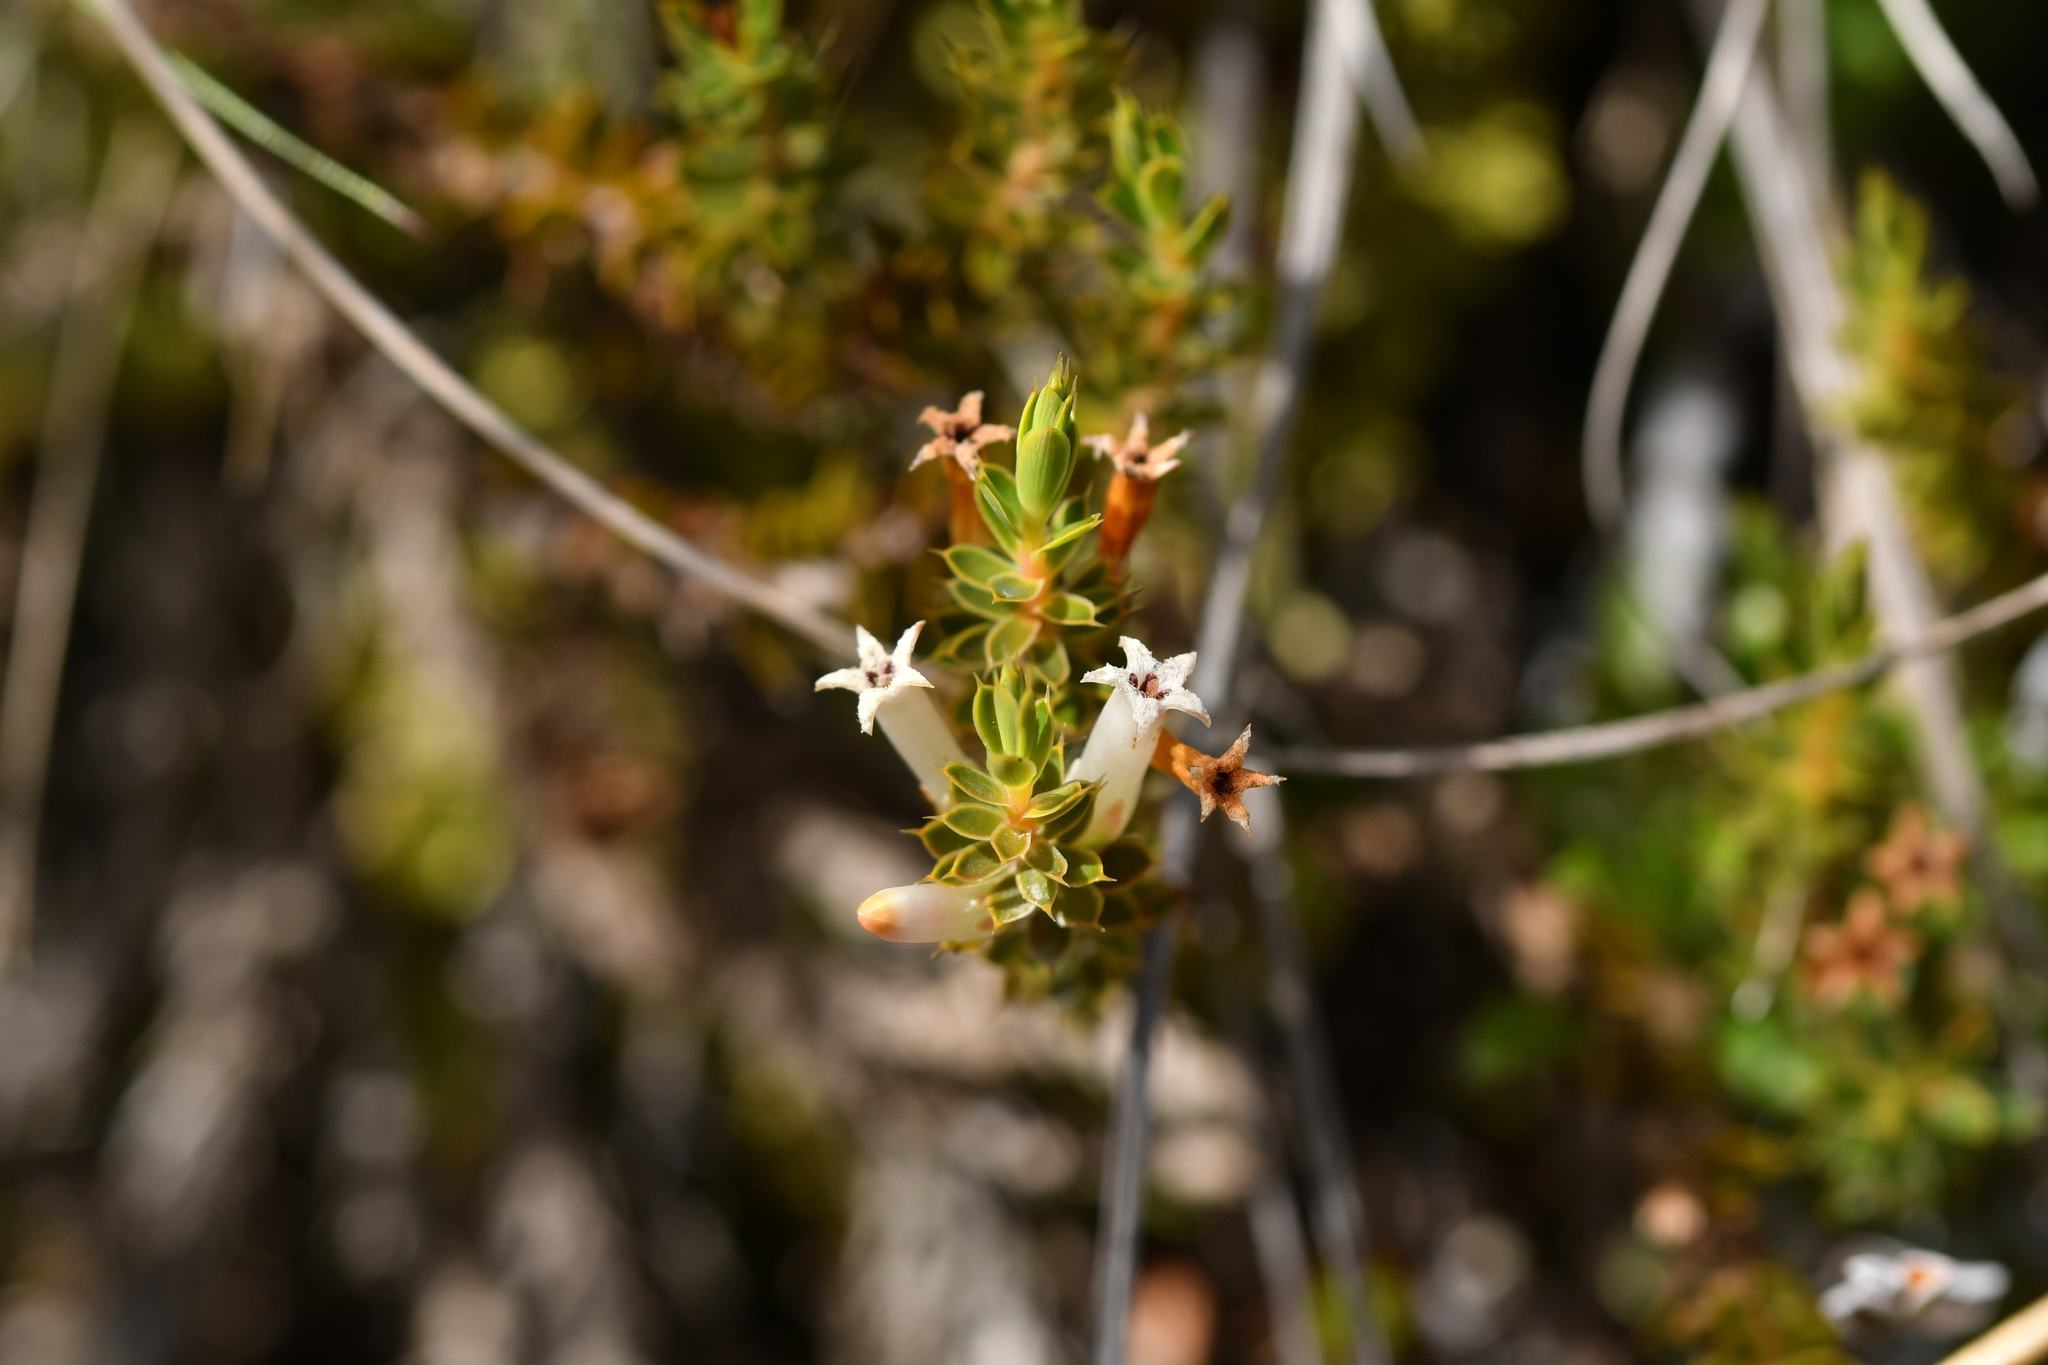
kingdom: Plantae
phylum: Tracheophyta
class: Magnoliopsida
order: Ericales
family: Ericaceae
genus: Styphelia
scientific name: Styphelia nesophila
